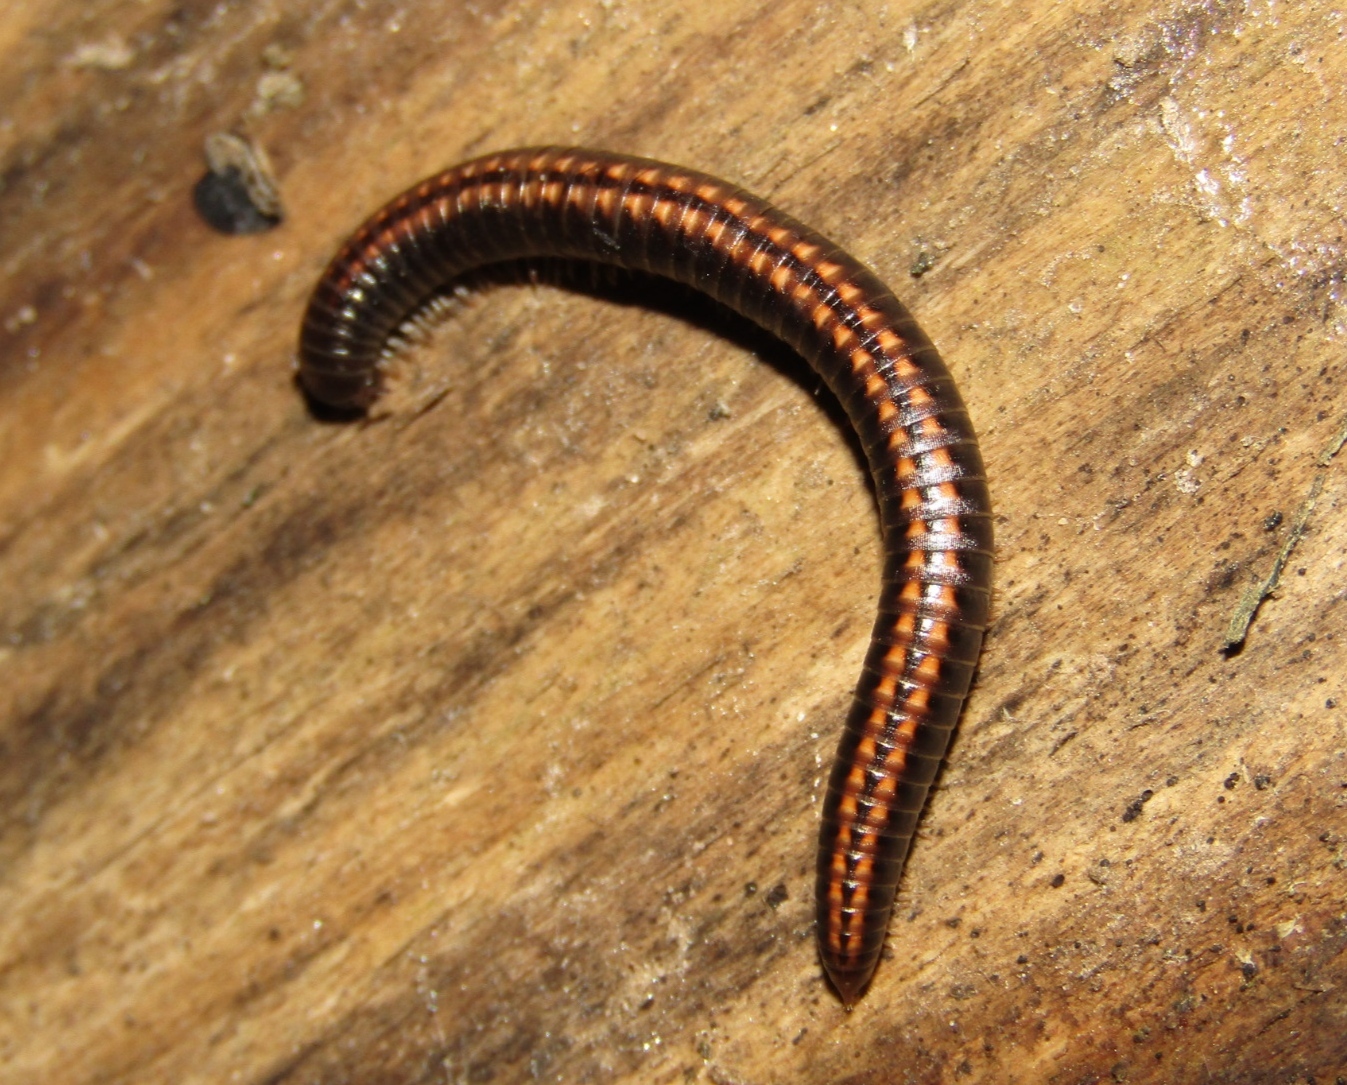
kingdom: Animalia
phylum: Arthropoda
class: Diplopoda
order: Julida
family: Julidae
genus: Ommatoiulus
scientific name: Ommatoiulus sabulosus
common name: Striped millipede
